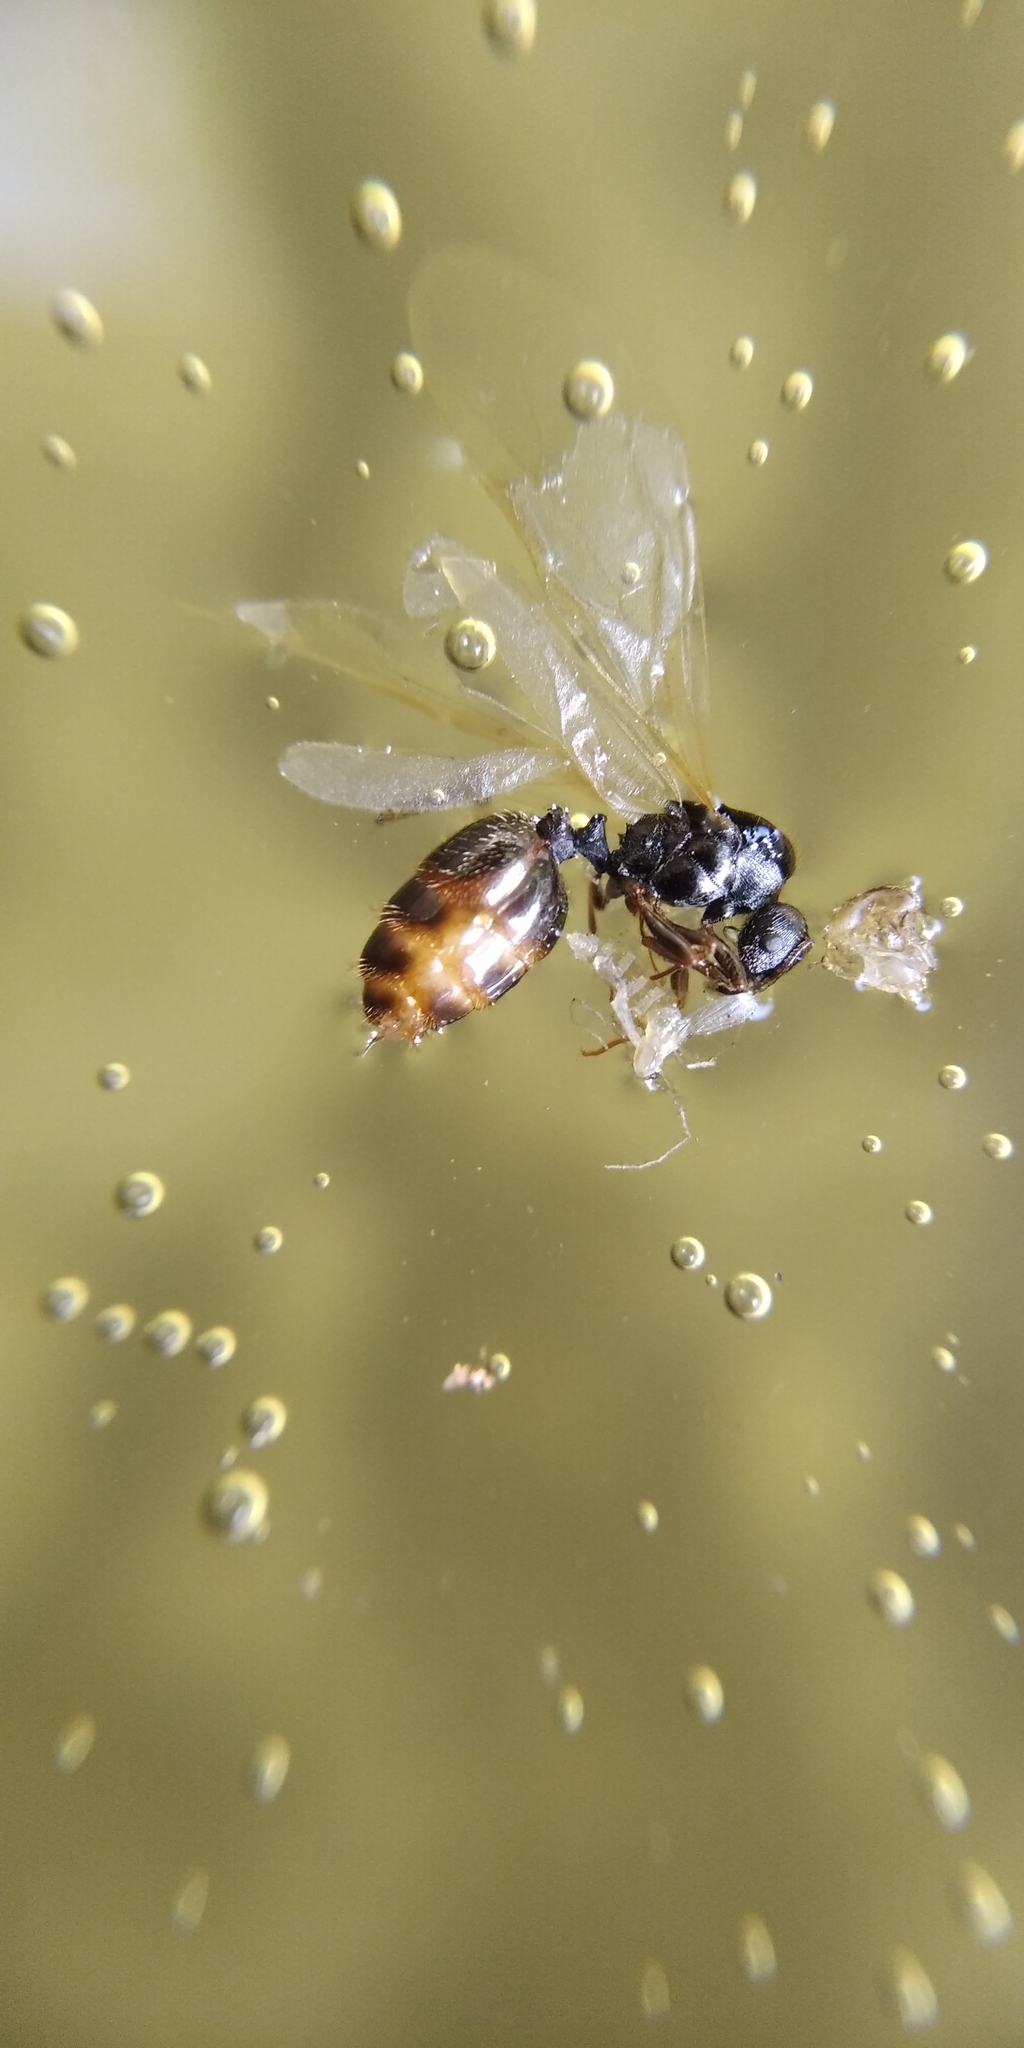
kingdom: Animalia
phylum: Arthropoda
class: Insecta
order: Hymenoptera
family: Formicidae
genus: Solenopsis
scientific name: Solenopsis fugax
